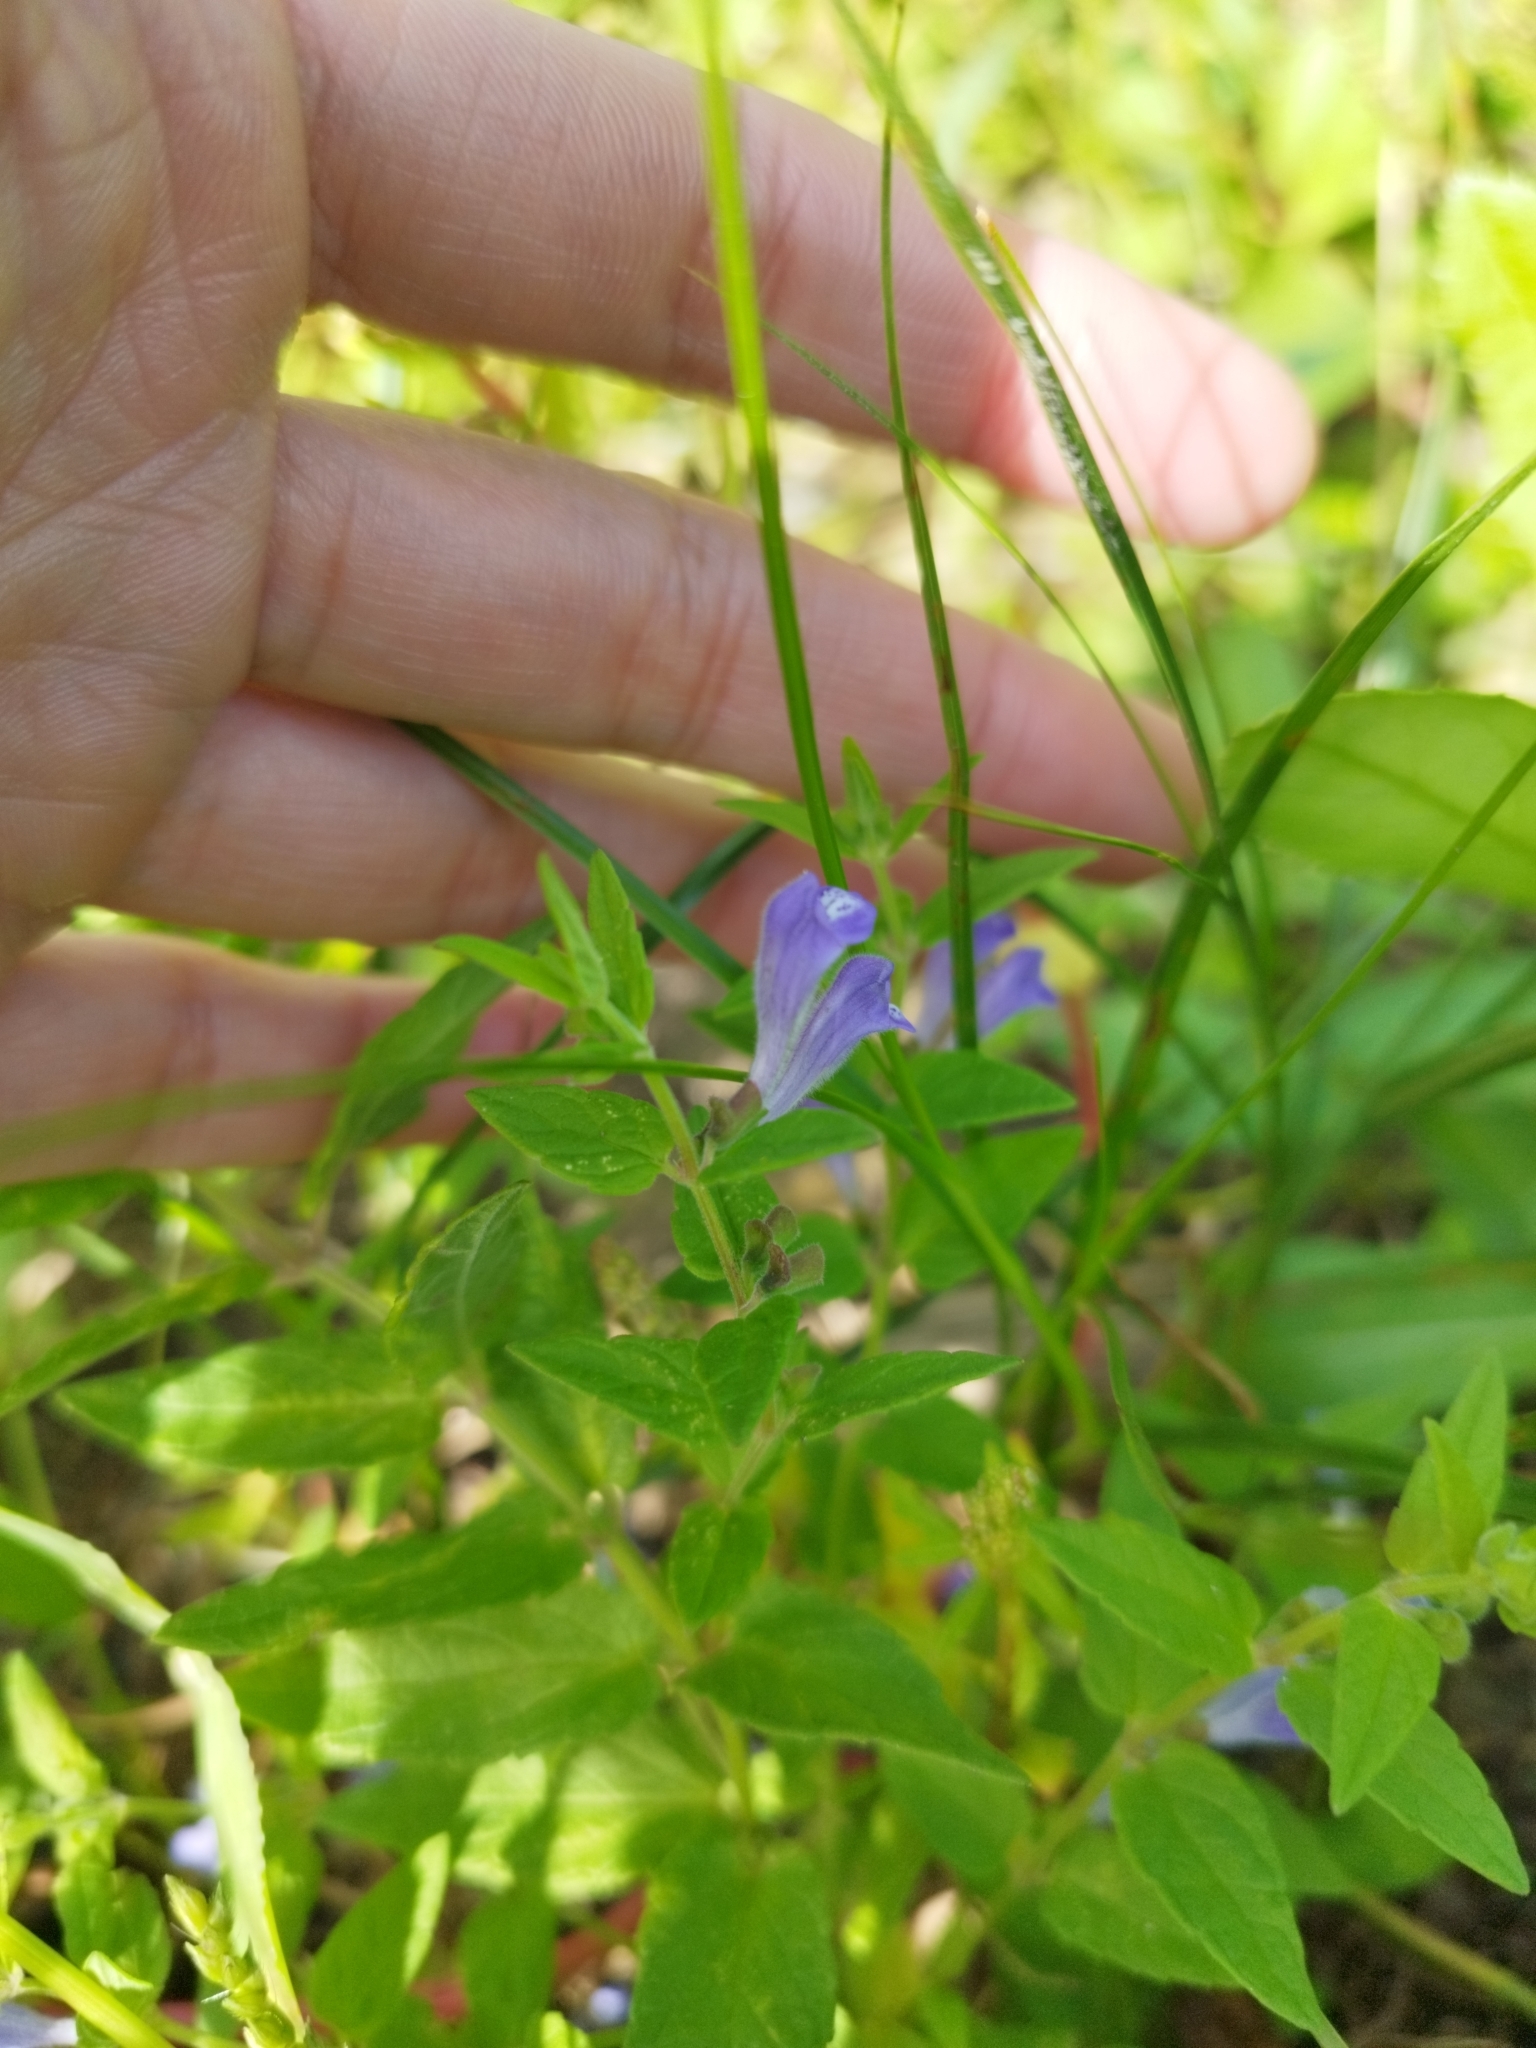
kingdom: Plantae
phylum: Tracheophyta
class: Magnoliopsida
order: Lamiales
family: Lamiaceae
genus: Scutellaria
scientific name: Scutellaria galericulata
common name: Skullcap
